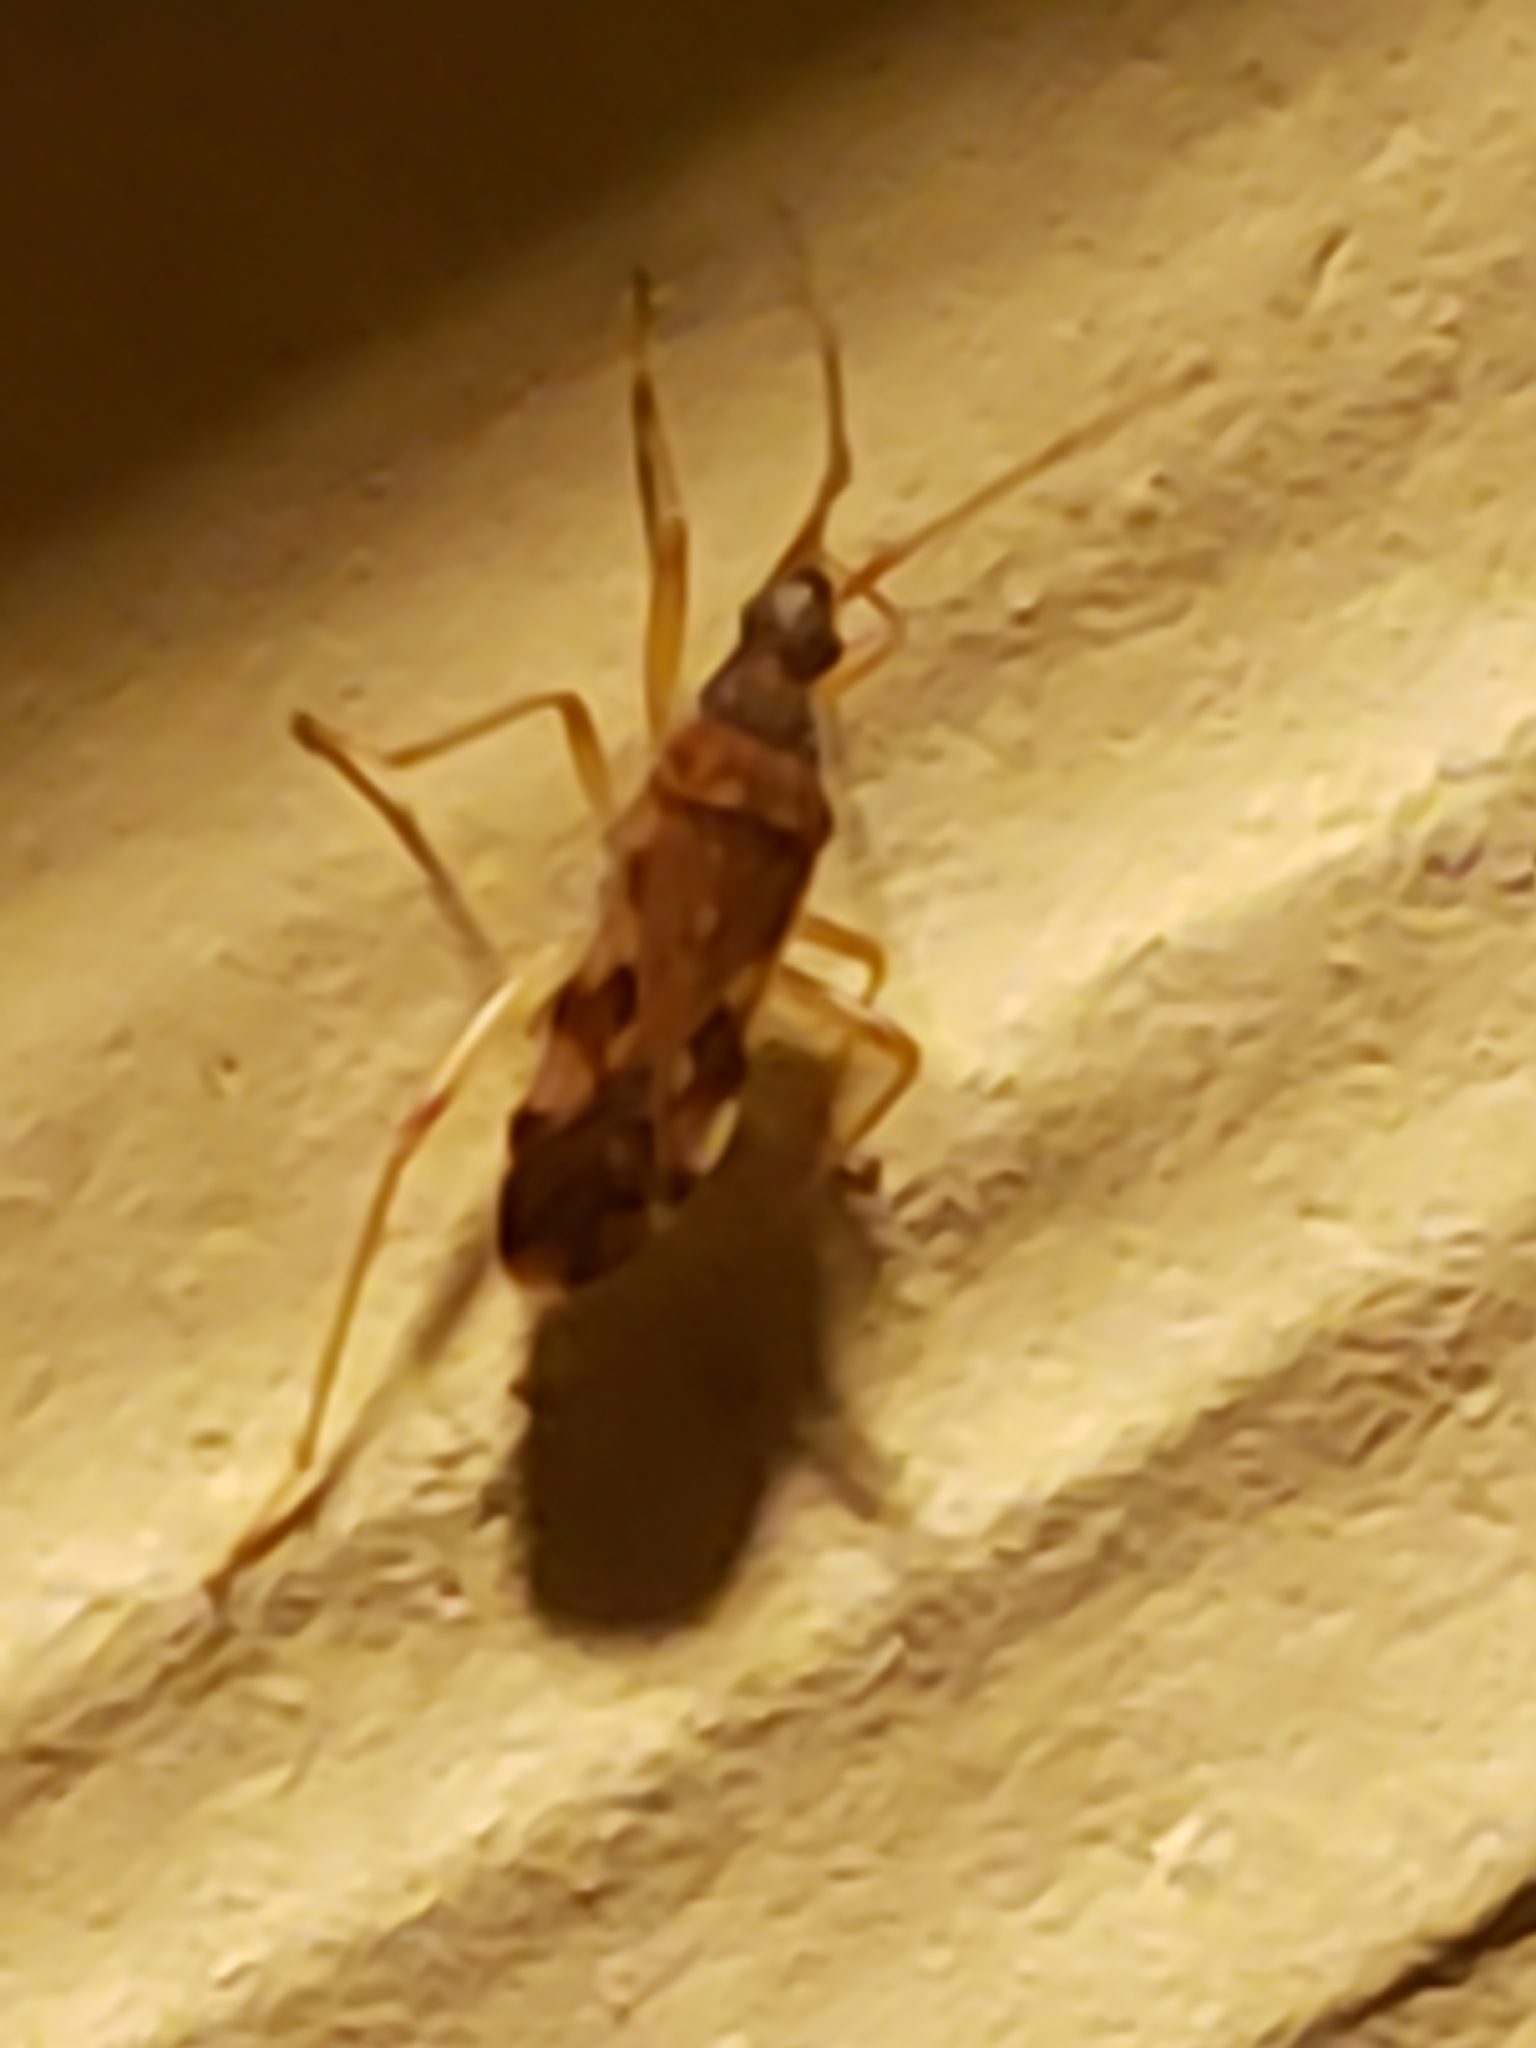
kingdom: Animalia
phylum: Arthropoda
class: Insecta
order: Hemiptera
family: Rhyparochromidae
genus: Ozophora
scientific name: Ozophora picturata
